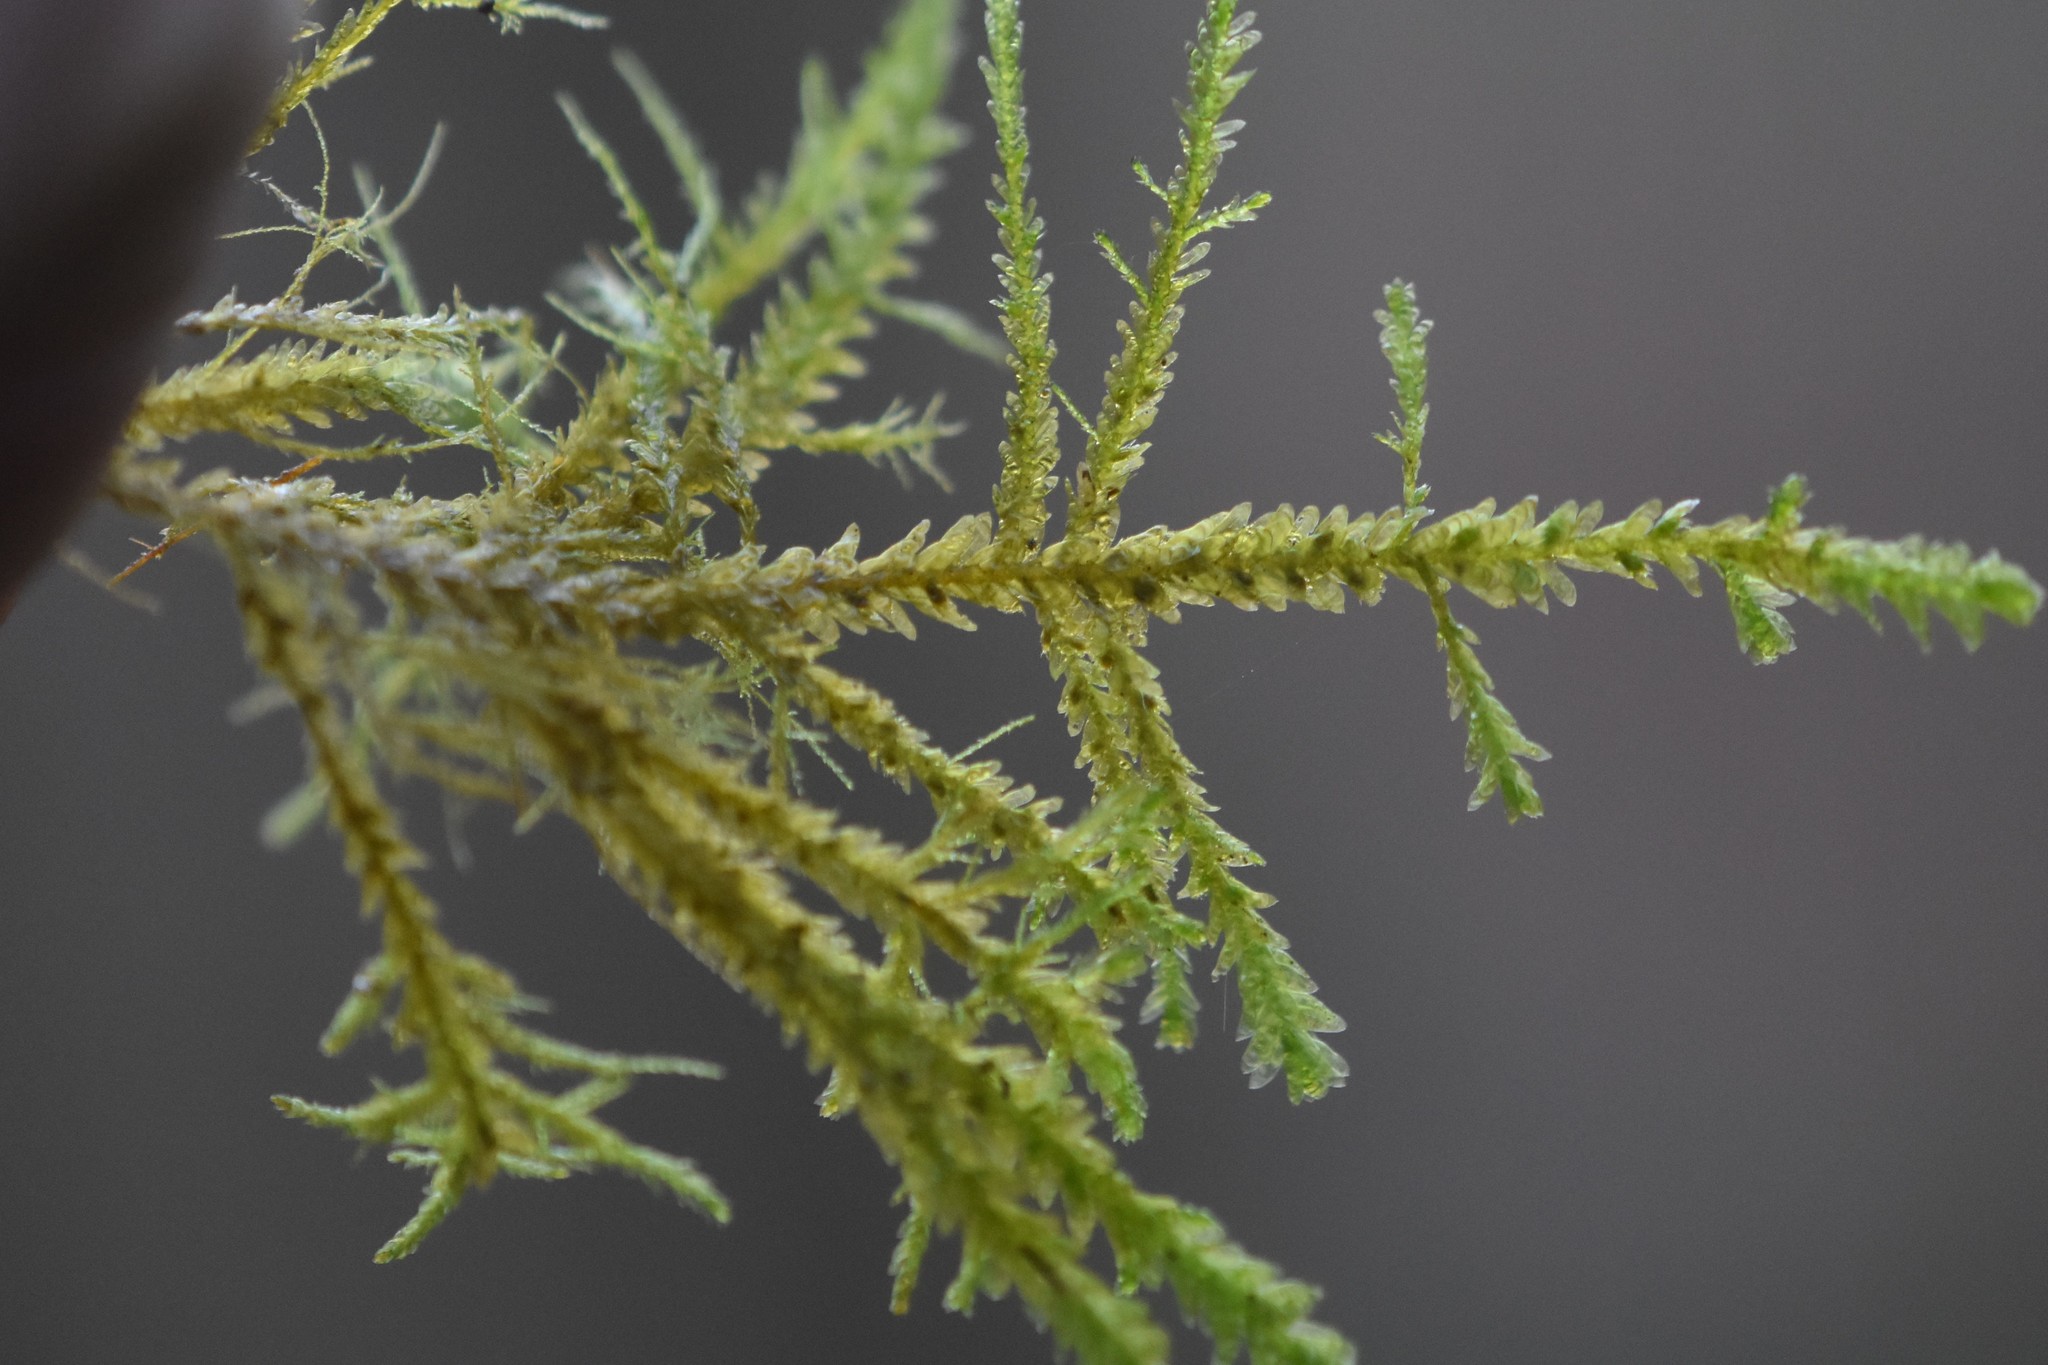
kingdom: Plantae
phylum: Bryophyta
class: Bryopsida
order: Hypnales
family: Neckeraceae
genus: Metaneckera
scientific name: Metaneckera menziesii
